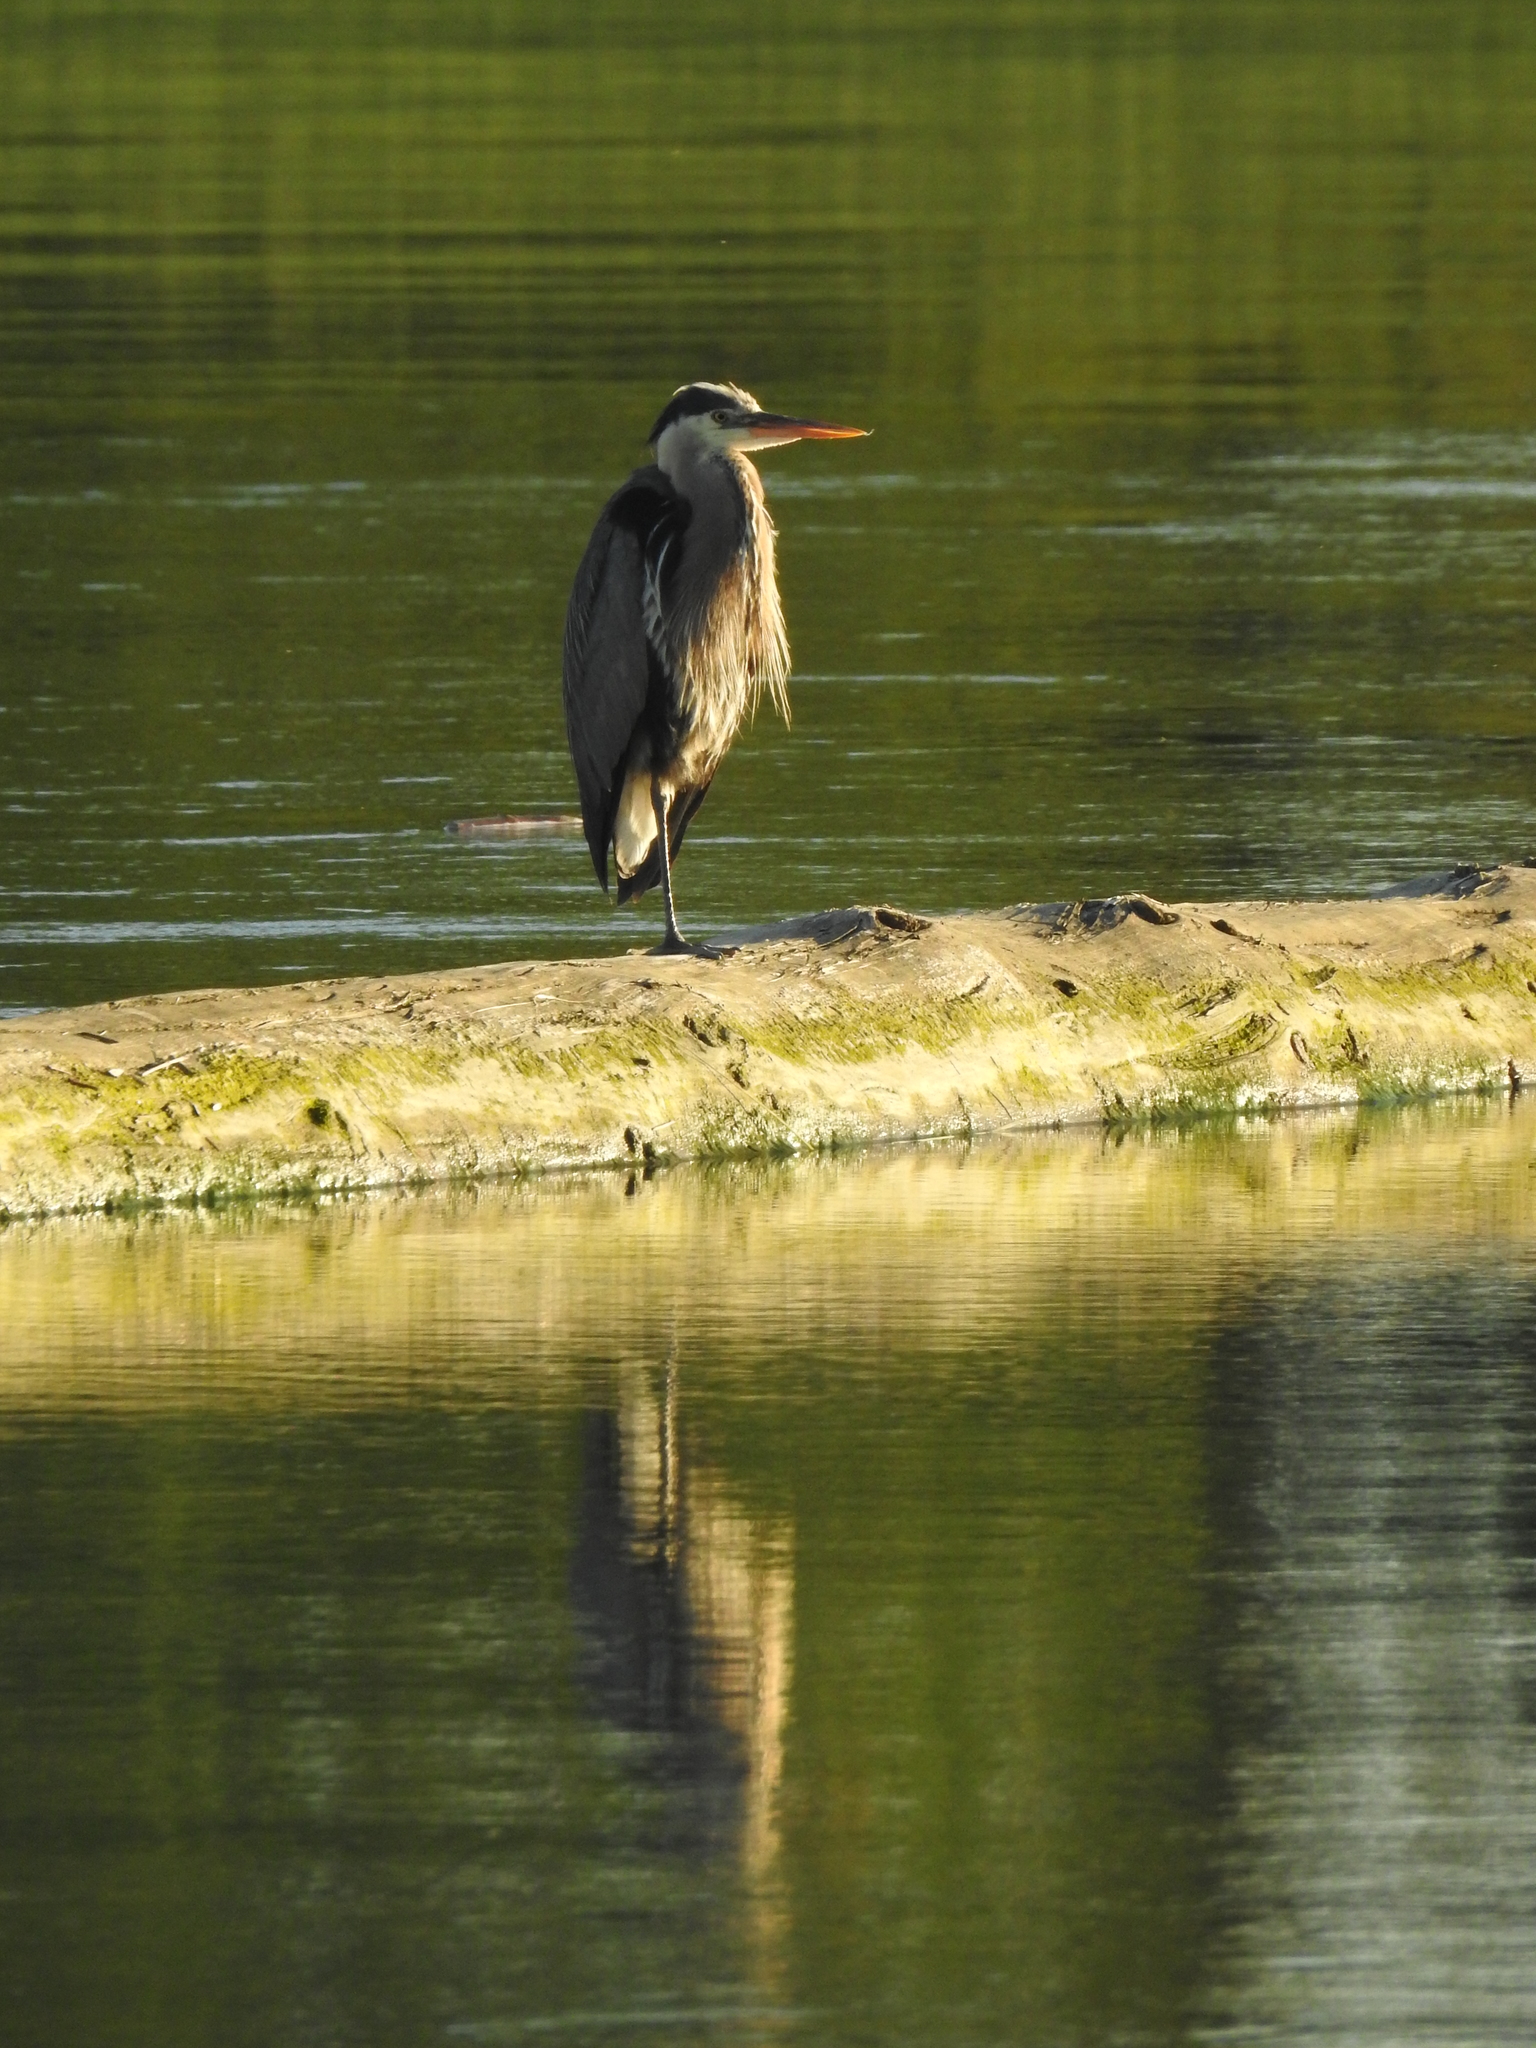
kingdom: Animalia
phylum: Chordata
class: Aves
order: Pelecaniformes
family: Ardeidae
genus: Ardea
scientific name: Ardea herodias
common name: Great blue heron
